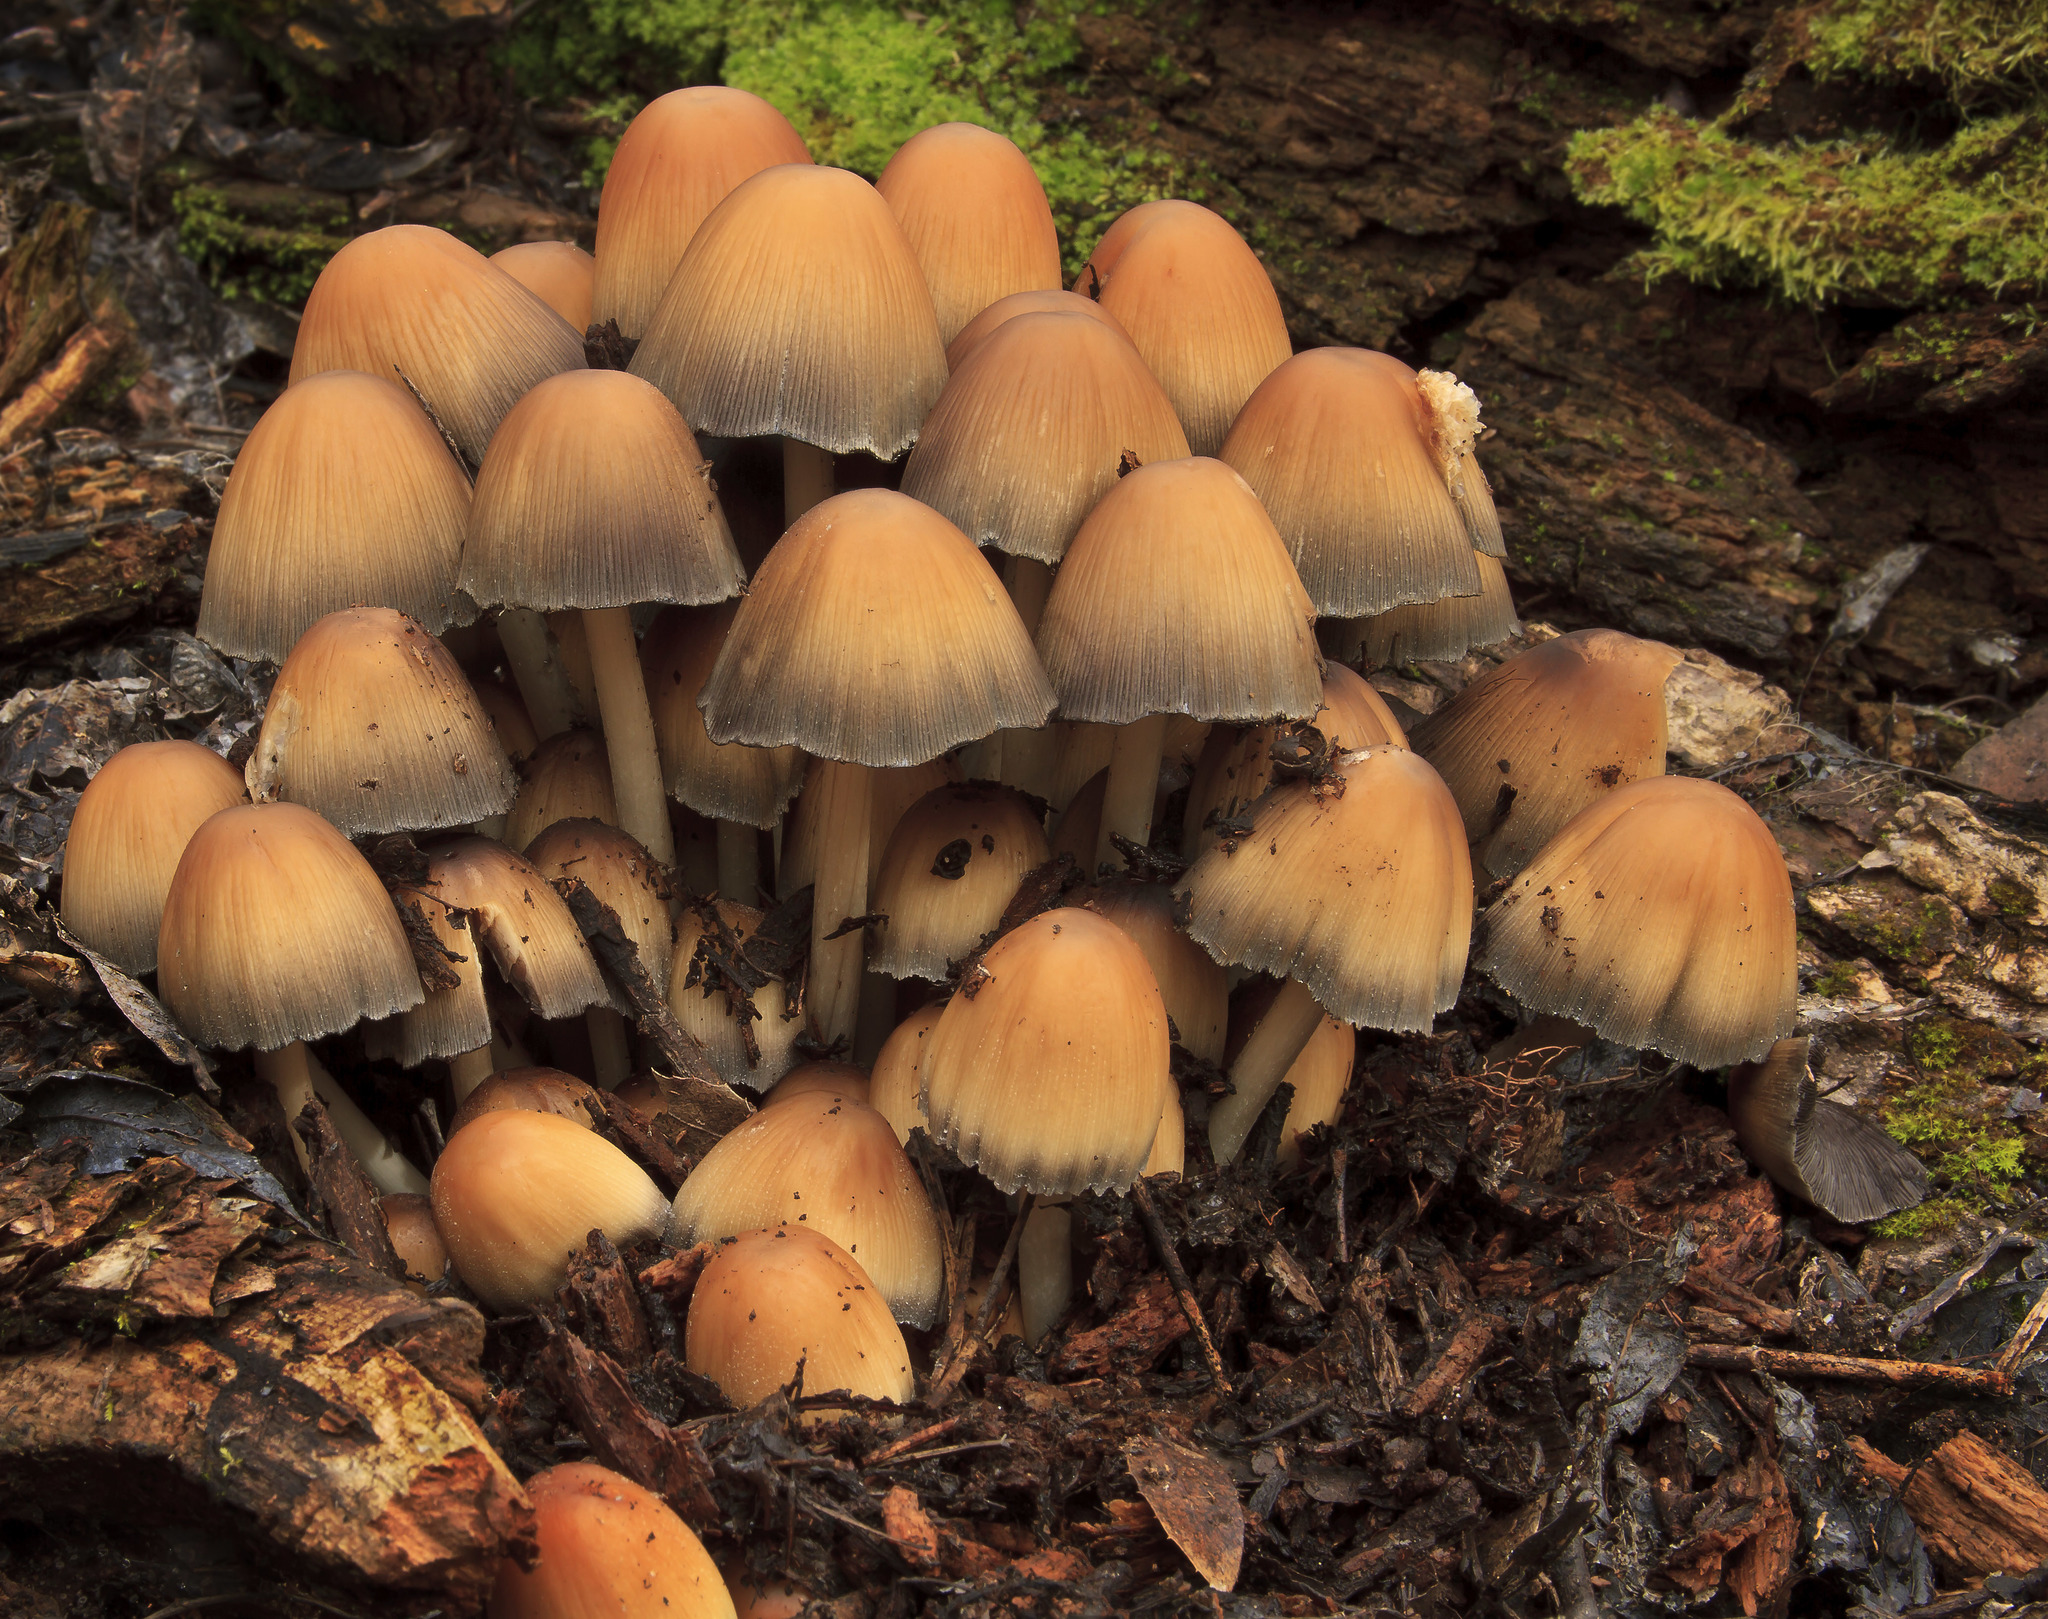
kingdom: Fungi
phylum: Basidiomycota
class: Agaricomycetes
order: Agaricales
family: Psathyrellaceae
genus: Coprinellus
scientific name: Coprinellus micaceus
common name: Glistening ink-cap
